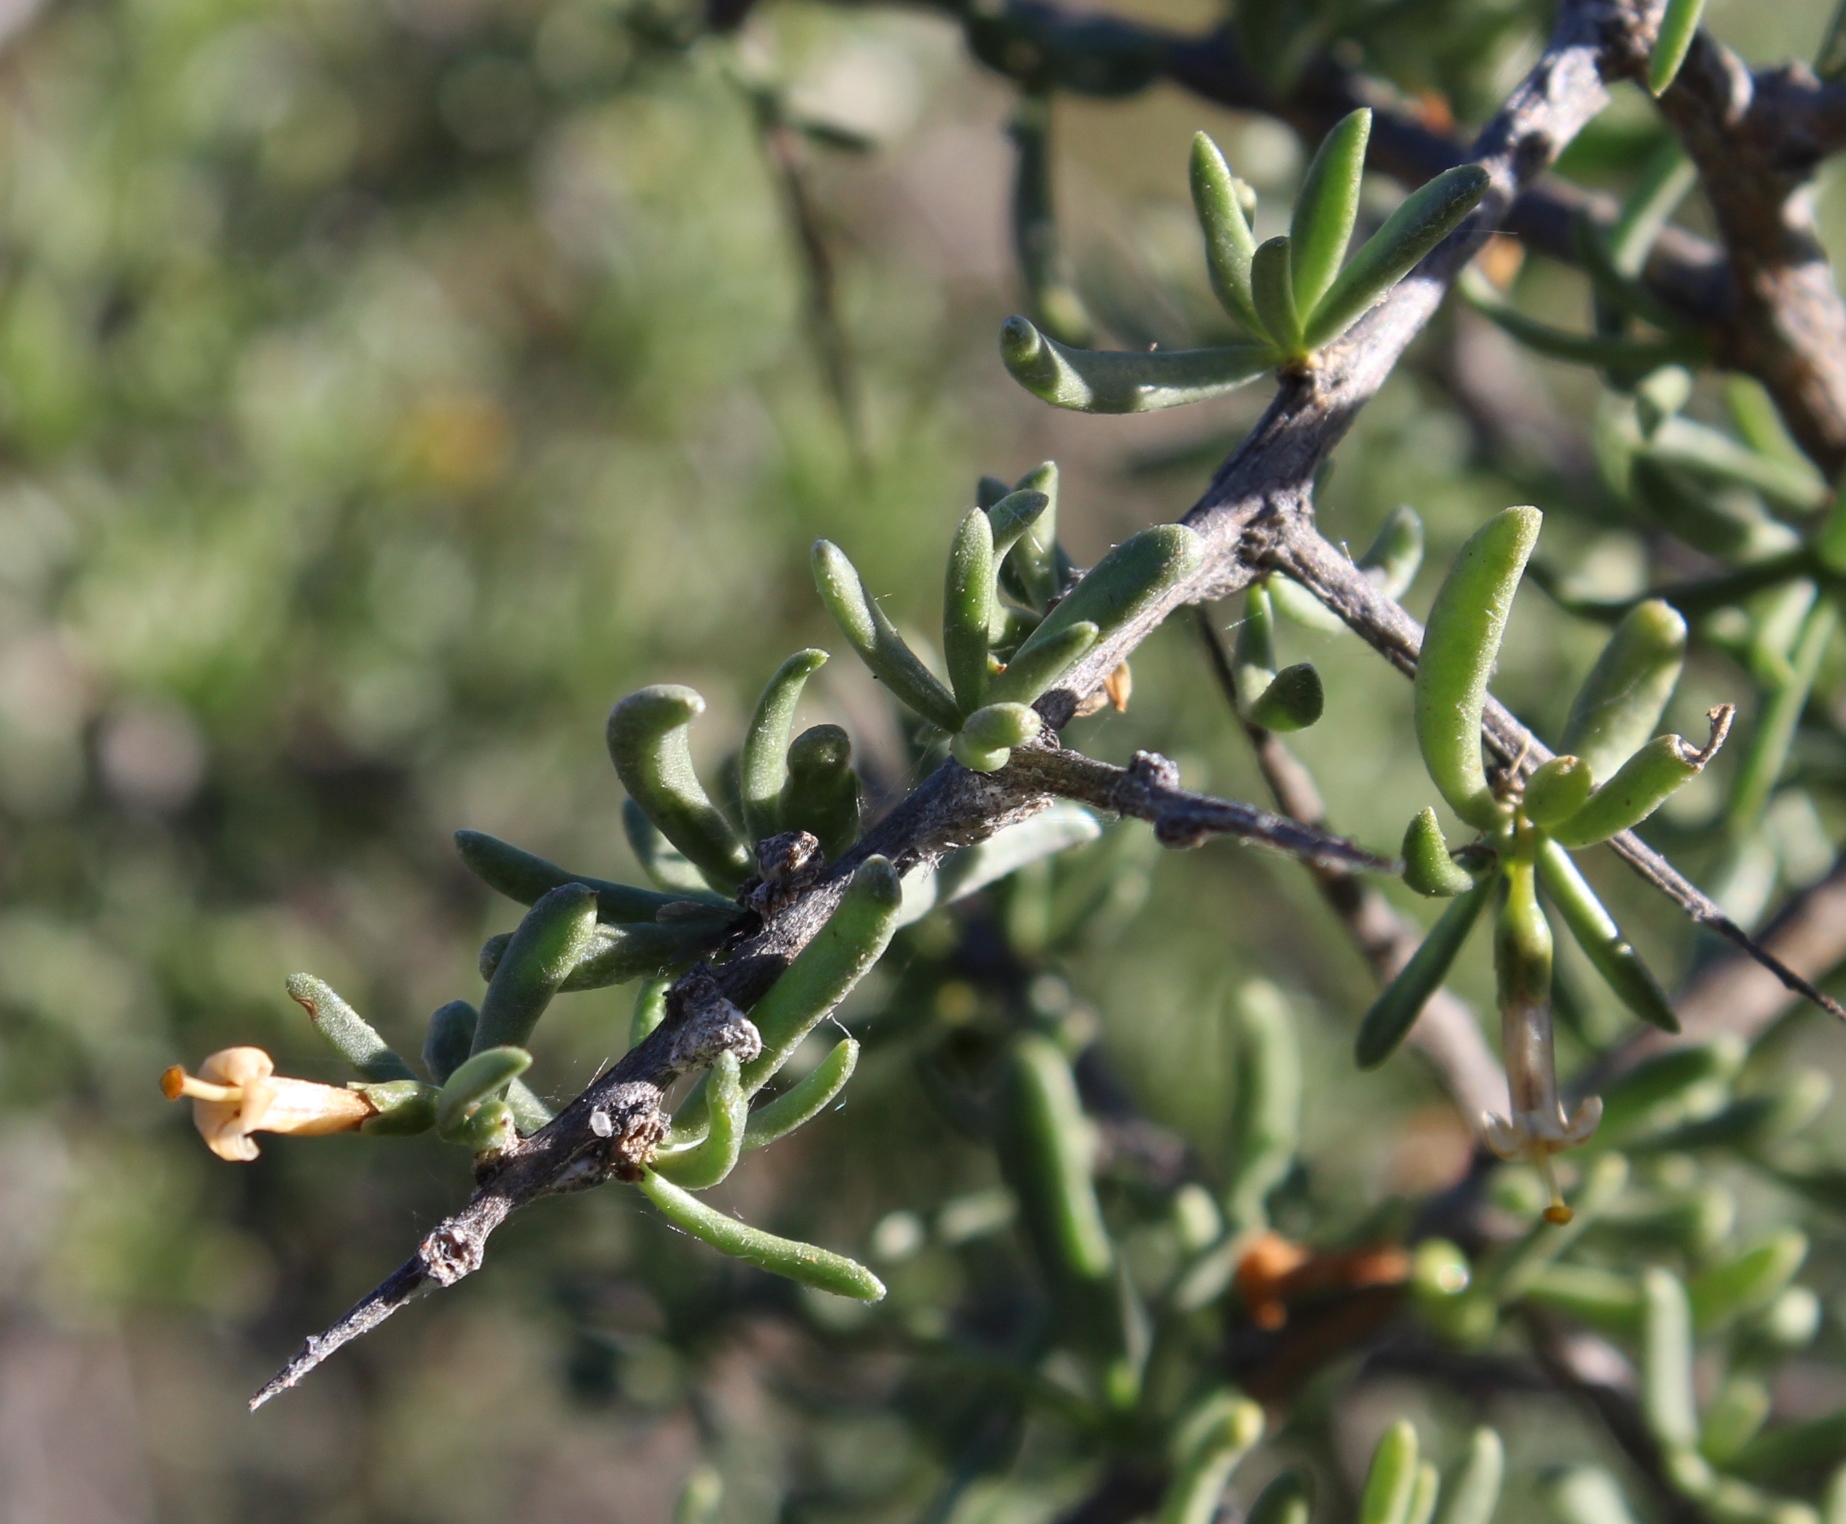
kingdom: Plantae
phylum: Tracheophyta
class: Magnoliopsida
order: Solanales
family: Solanaceae
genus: Lycium
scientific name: Lycium cinereum
